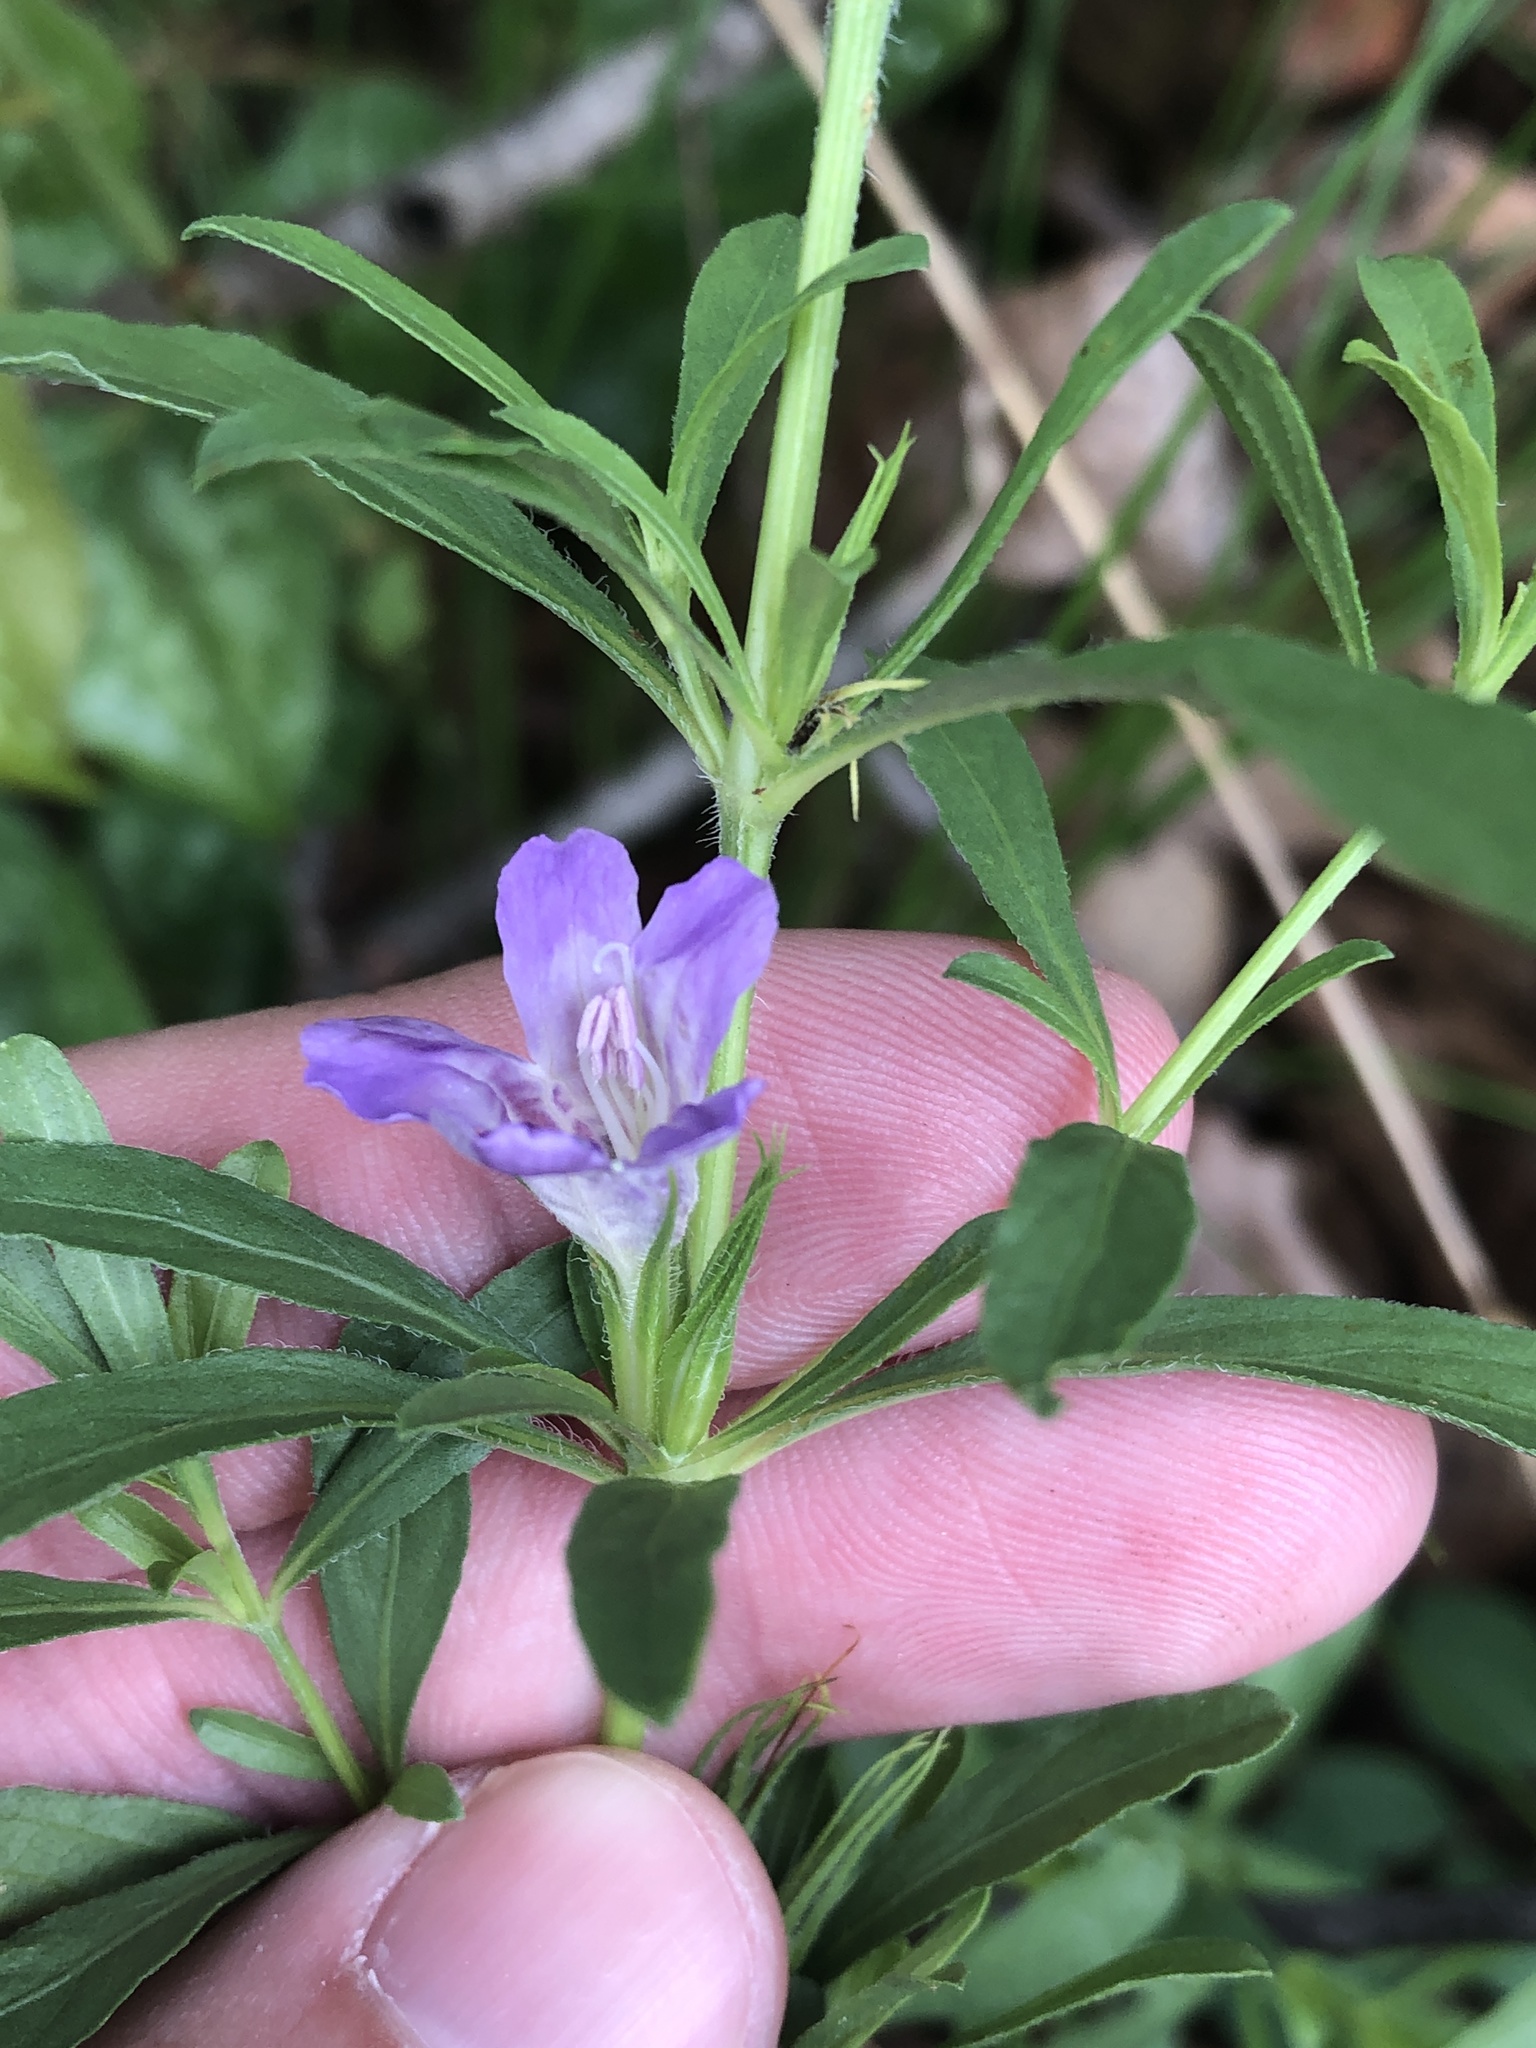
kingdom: Plantae
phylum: Tracheophyta
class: Magnoliopsida
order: Lamiales
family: Acanthaceae
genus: Dyschoriste
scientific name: Dyschoriste linearis
